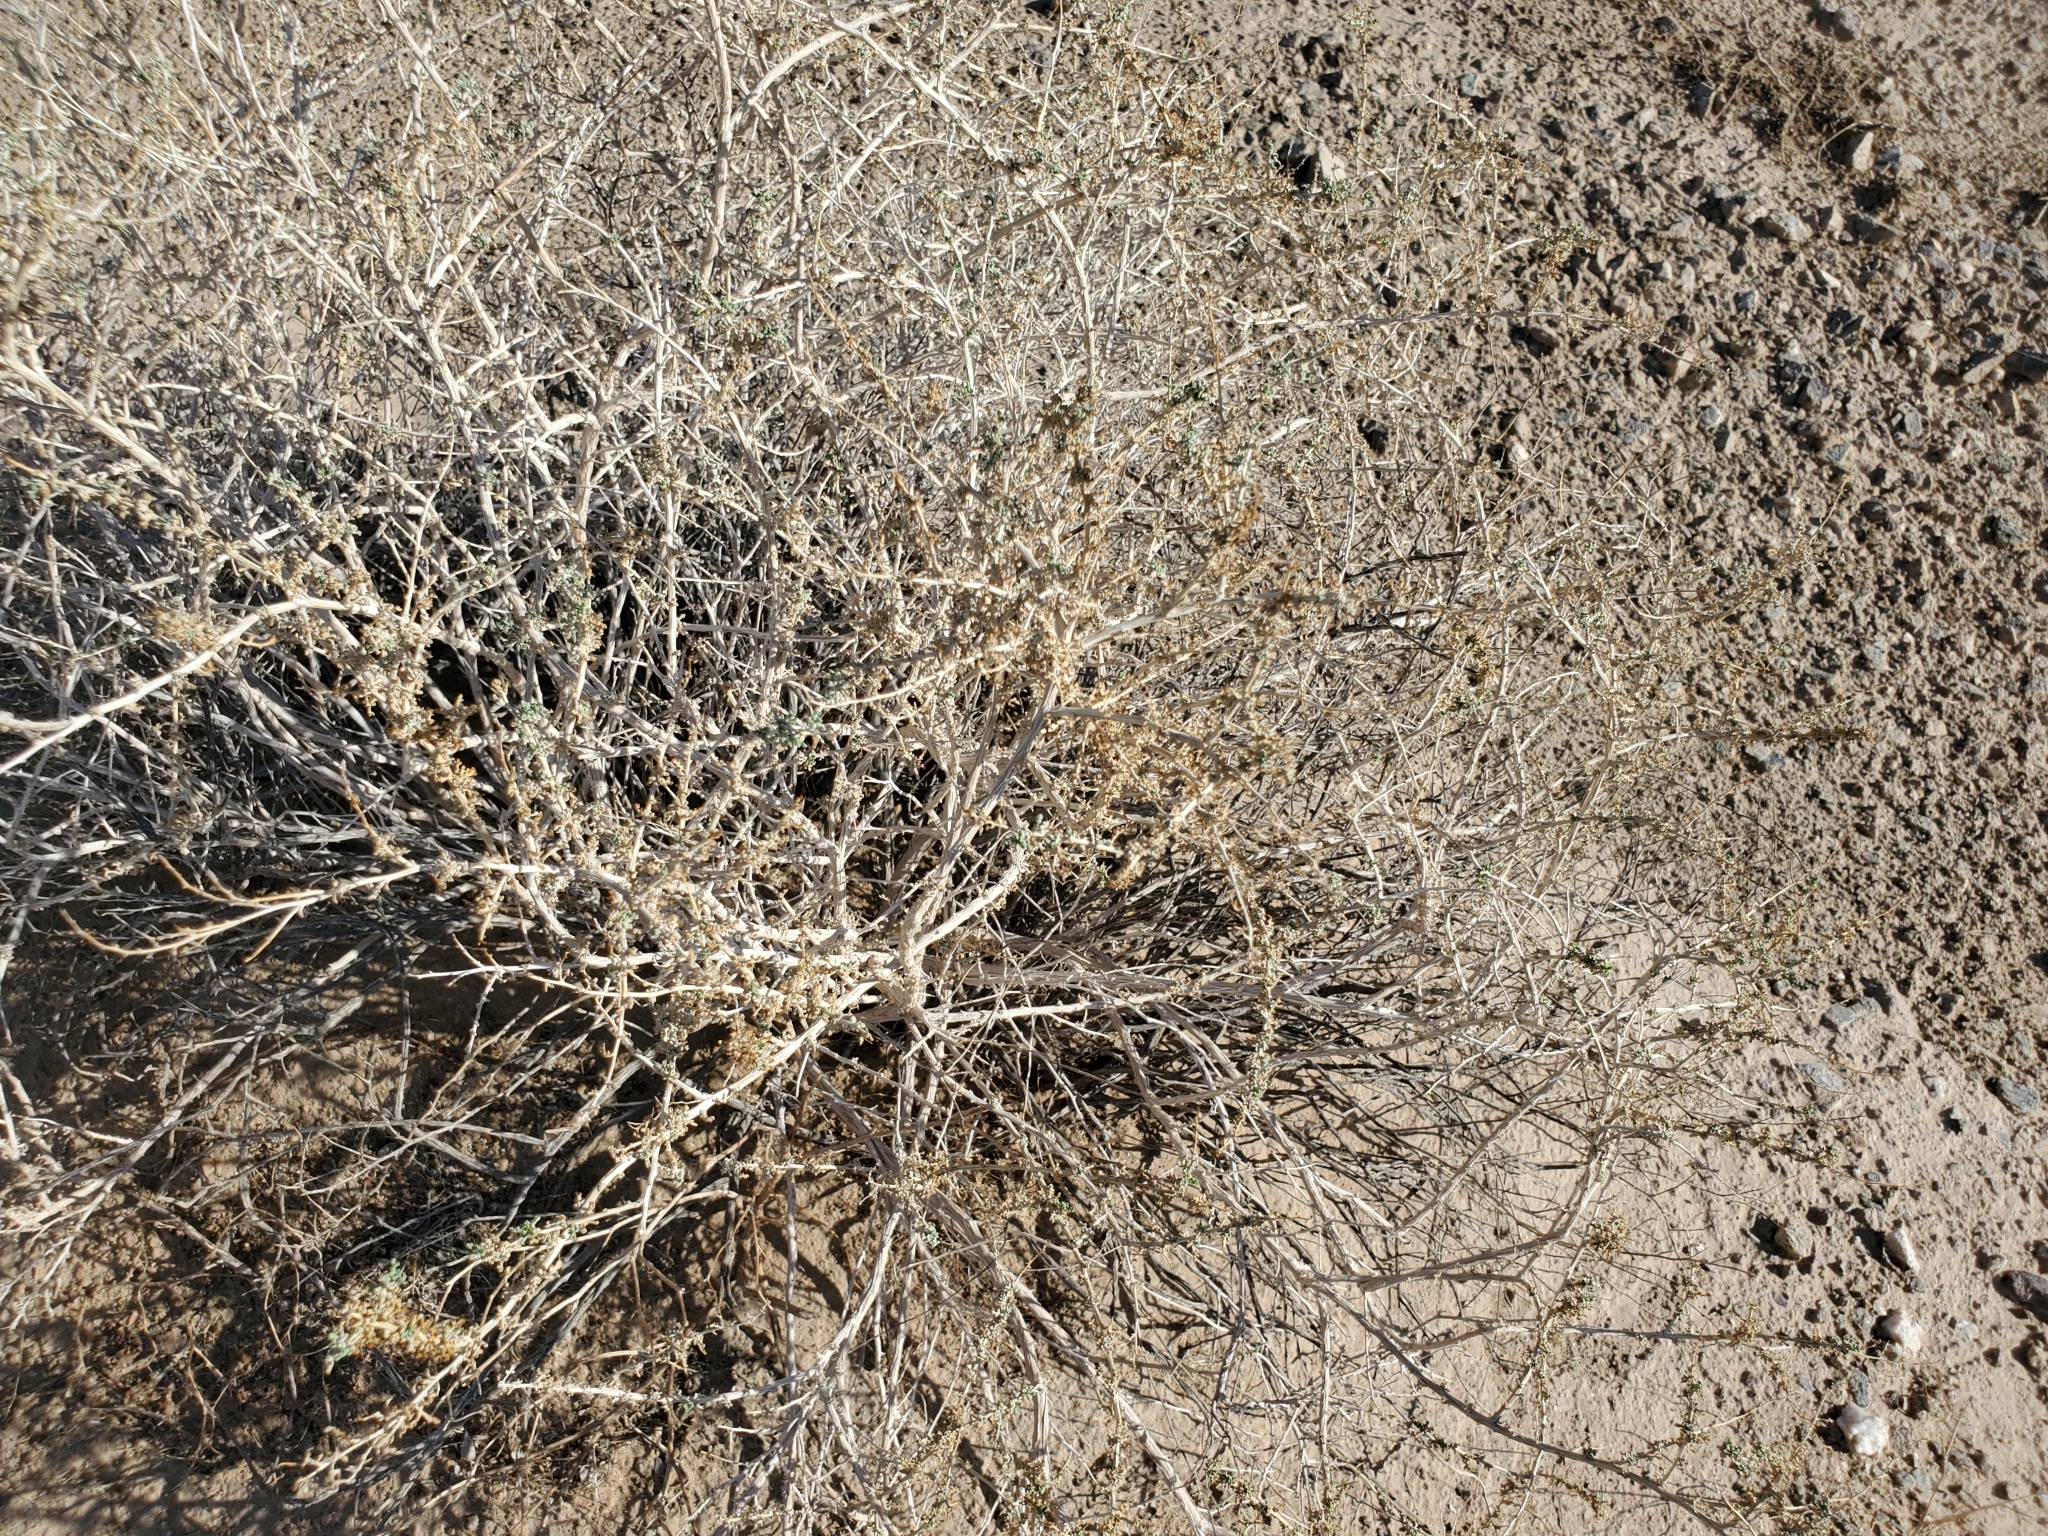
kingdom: Plantae
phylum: Tracheophyta
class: Magnoliopsida
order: Asterales
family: Asteraceae
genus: Ambrosia
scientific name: Ambrosia dumosa
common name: Bur-sage
